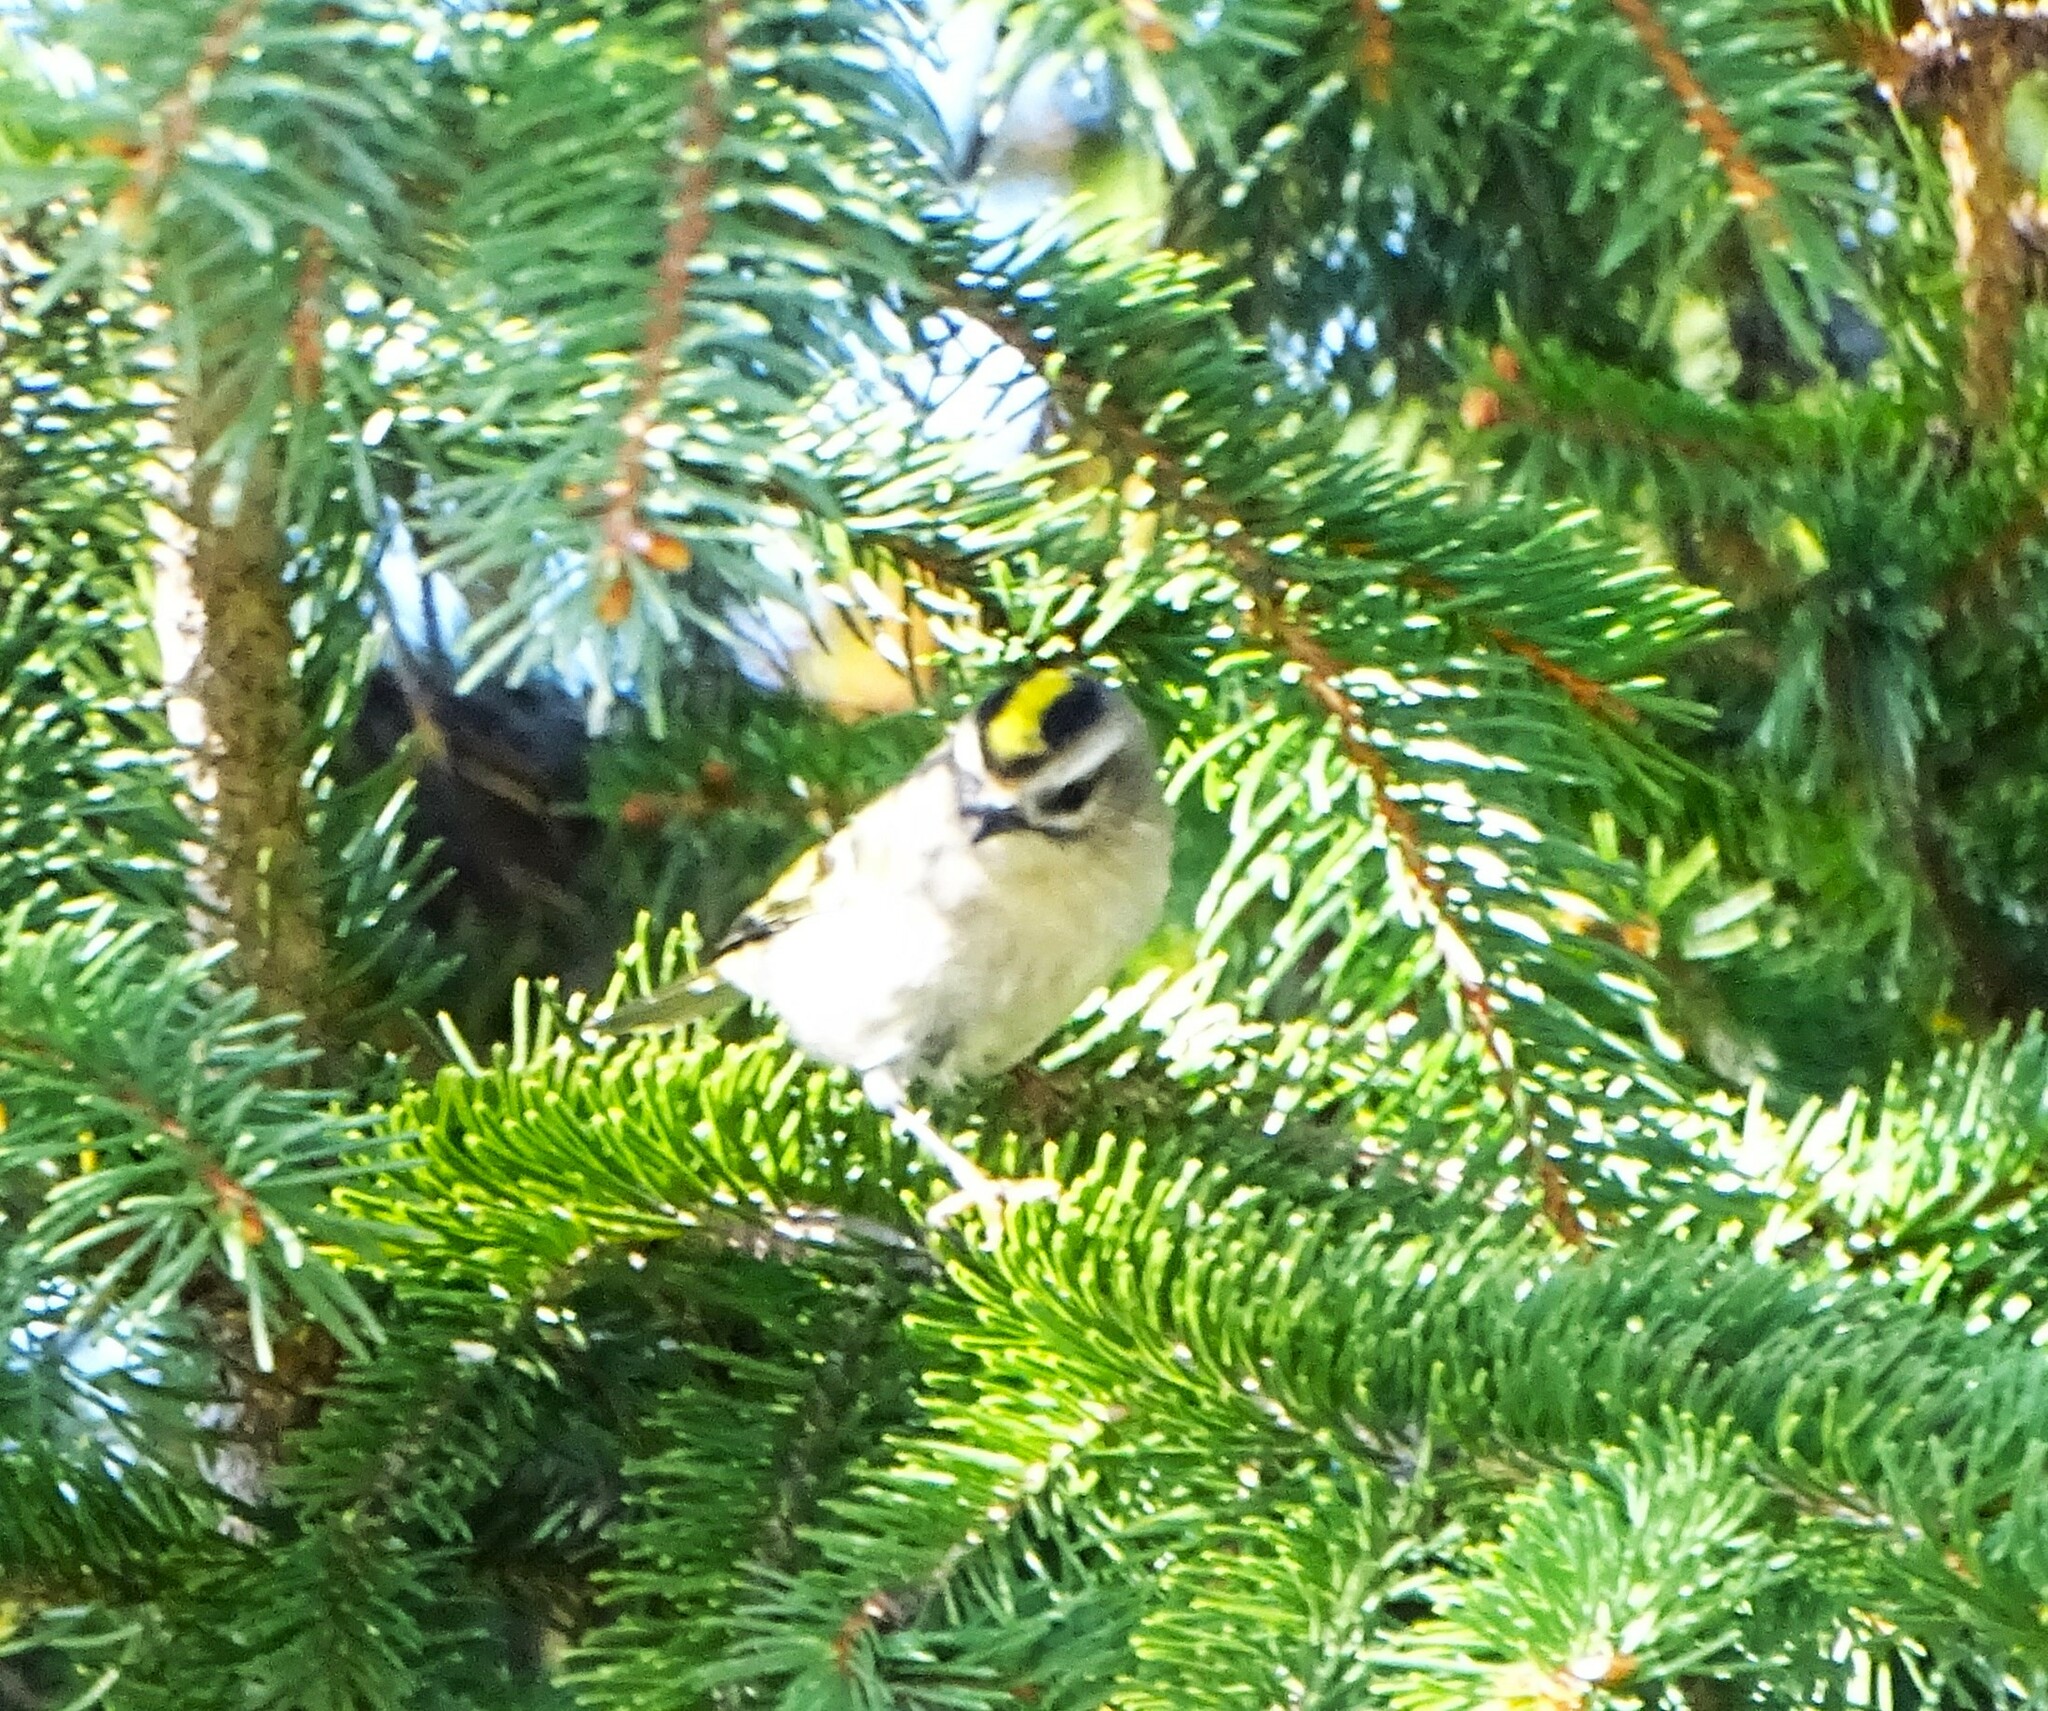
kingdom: Animalia
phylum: Chordata
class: Aves
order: Passeriformes
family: Regulidae
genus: Regulus
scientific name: Regulus satrapa
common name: Golden-crowned kinglet
